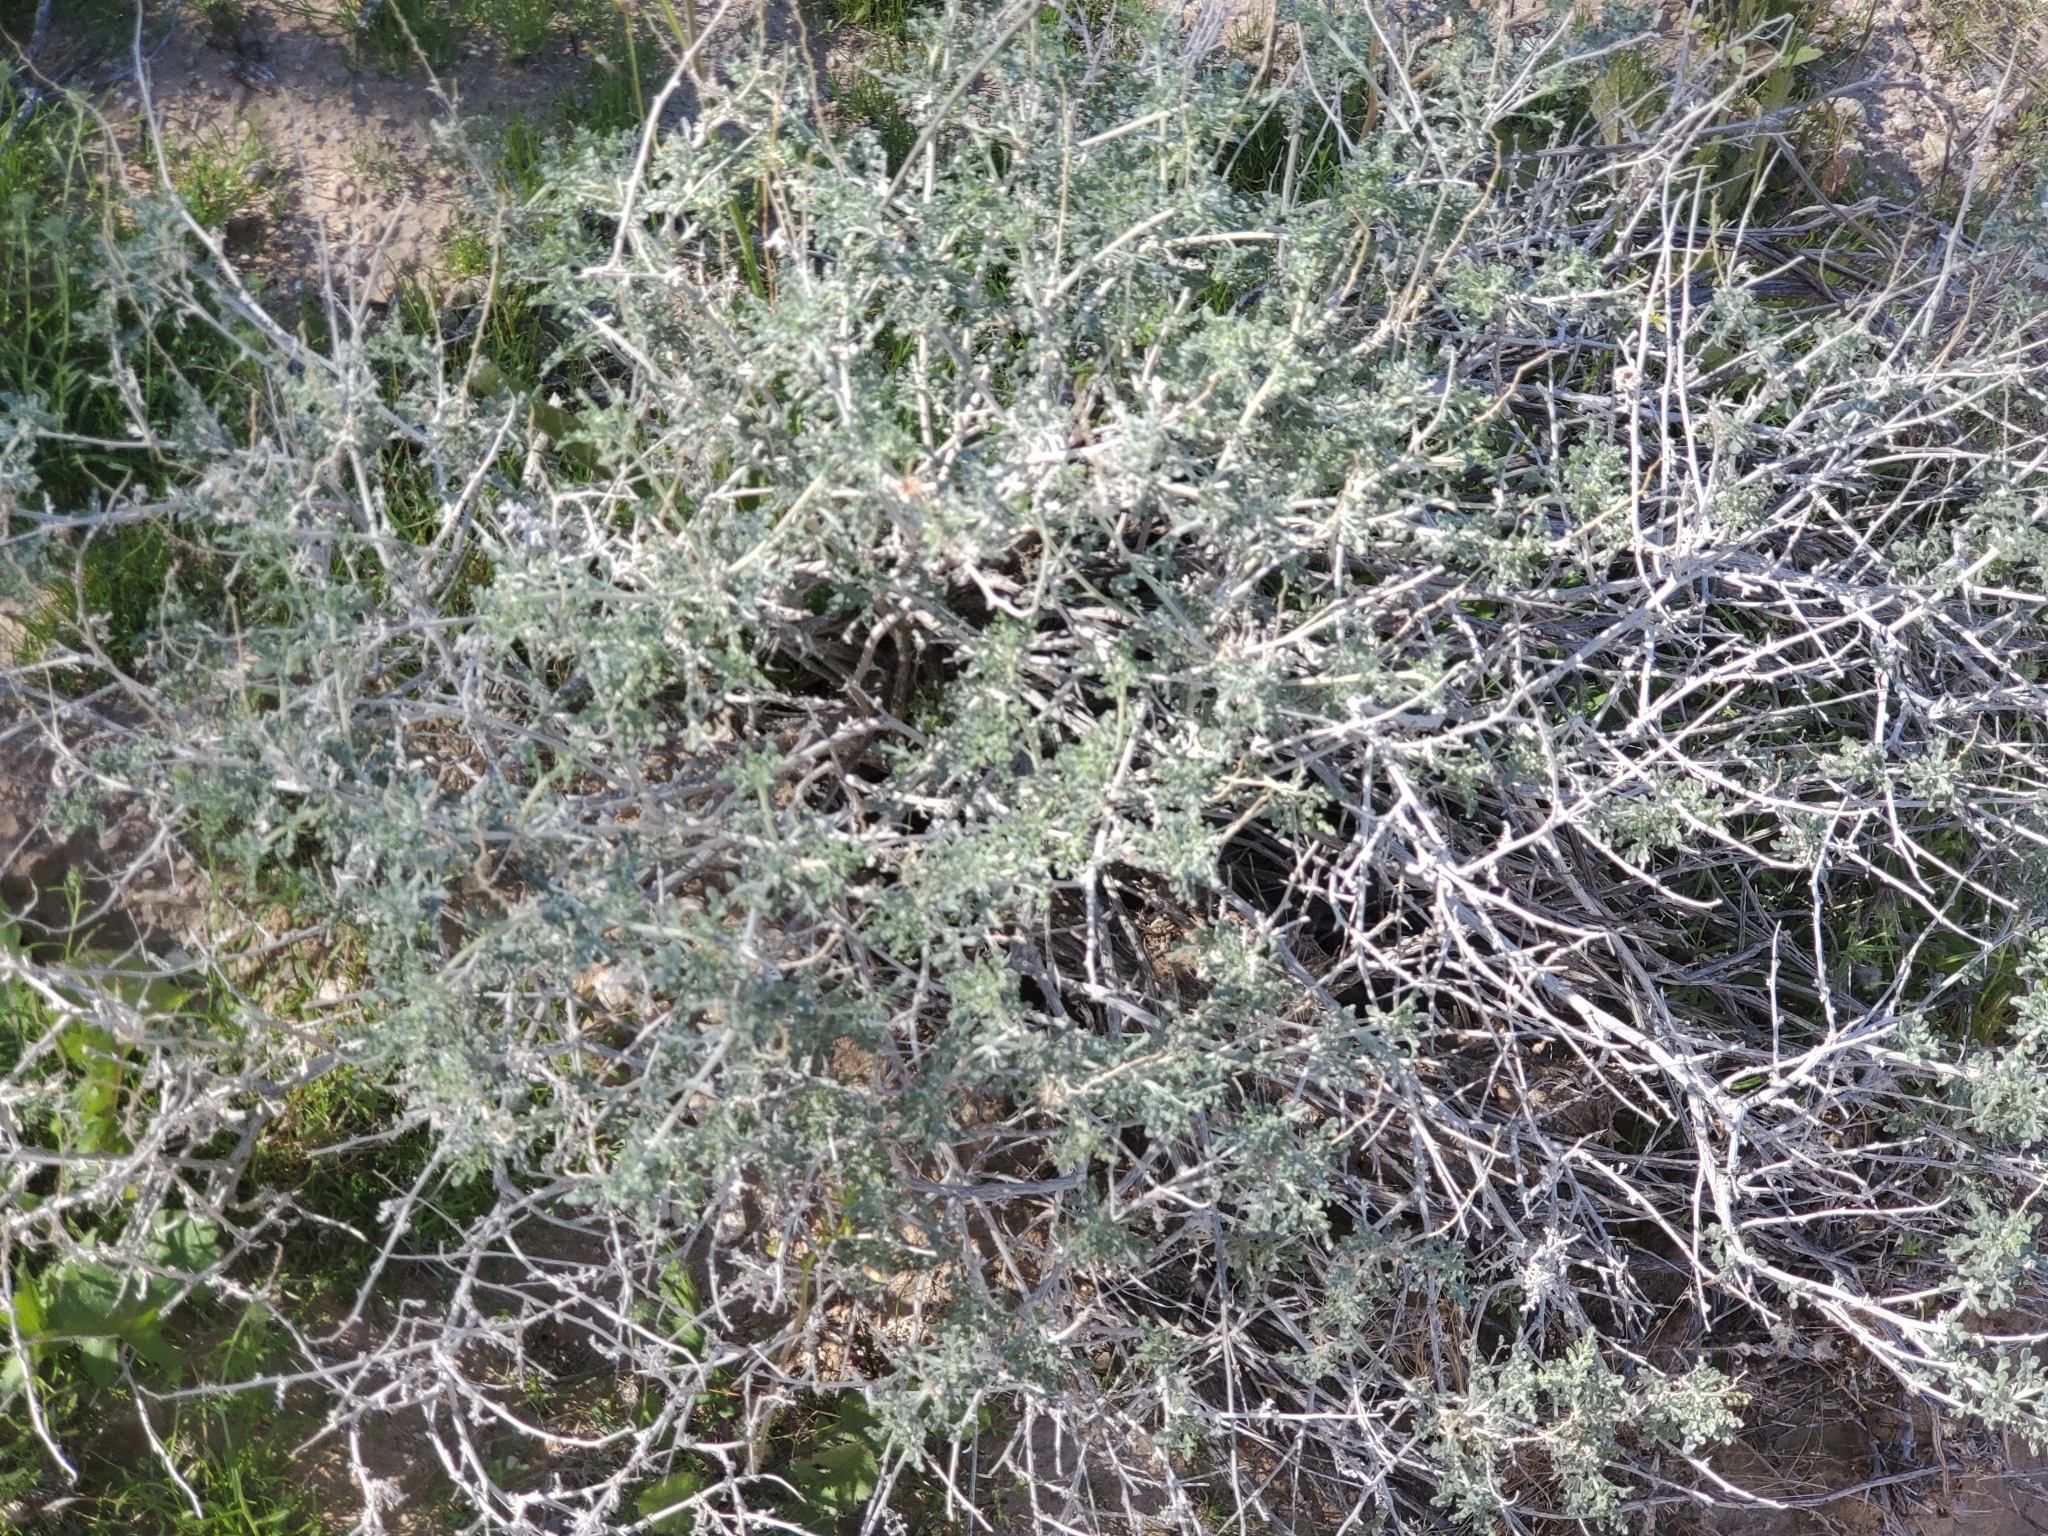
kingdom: Plantae
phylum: Tracheophyta
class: Magnoliopsida
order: Asterales
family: Asteraceae
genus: Ambrosia
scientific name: Ambrosia dumosa
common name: Bur-sage
